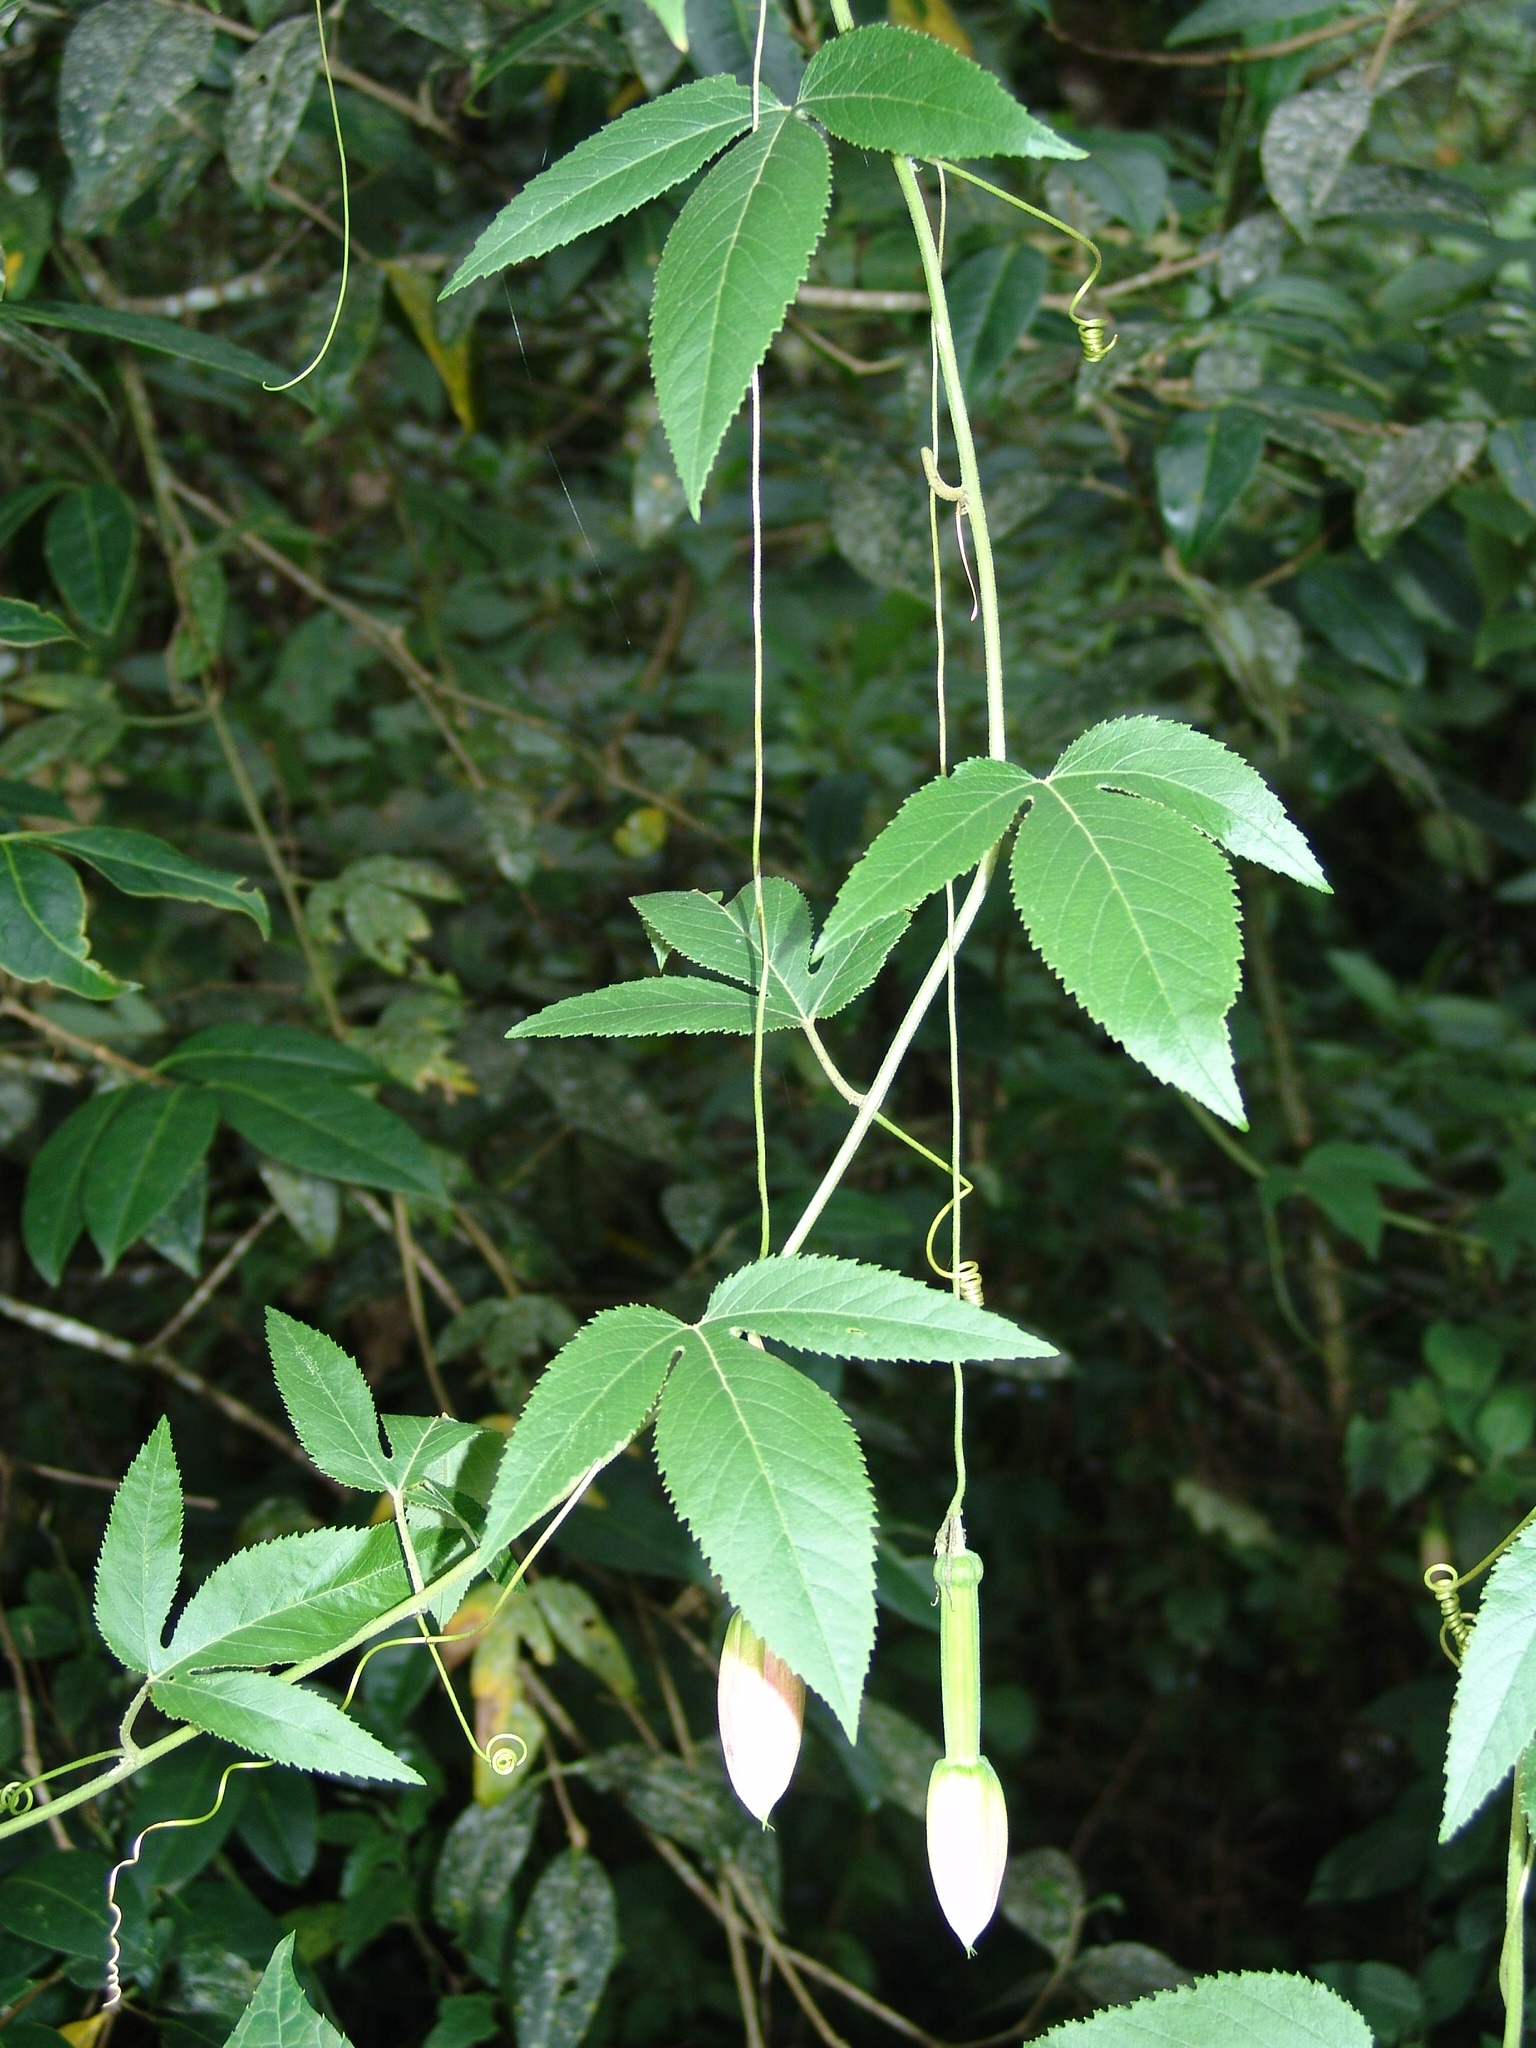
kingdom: Plantae
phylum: Tracheophyta
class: Magnoliopsida
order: Malpighiales
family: Passifloraceae
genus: Passiflora
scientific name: Passiflora flexipes
